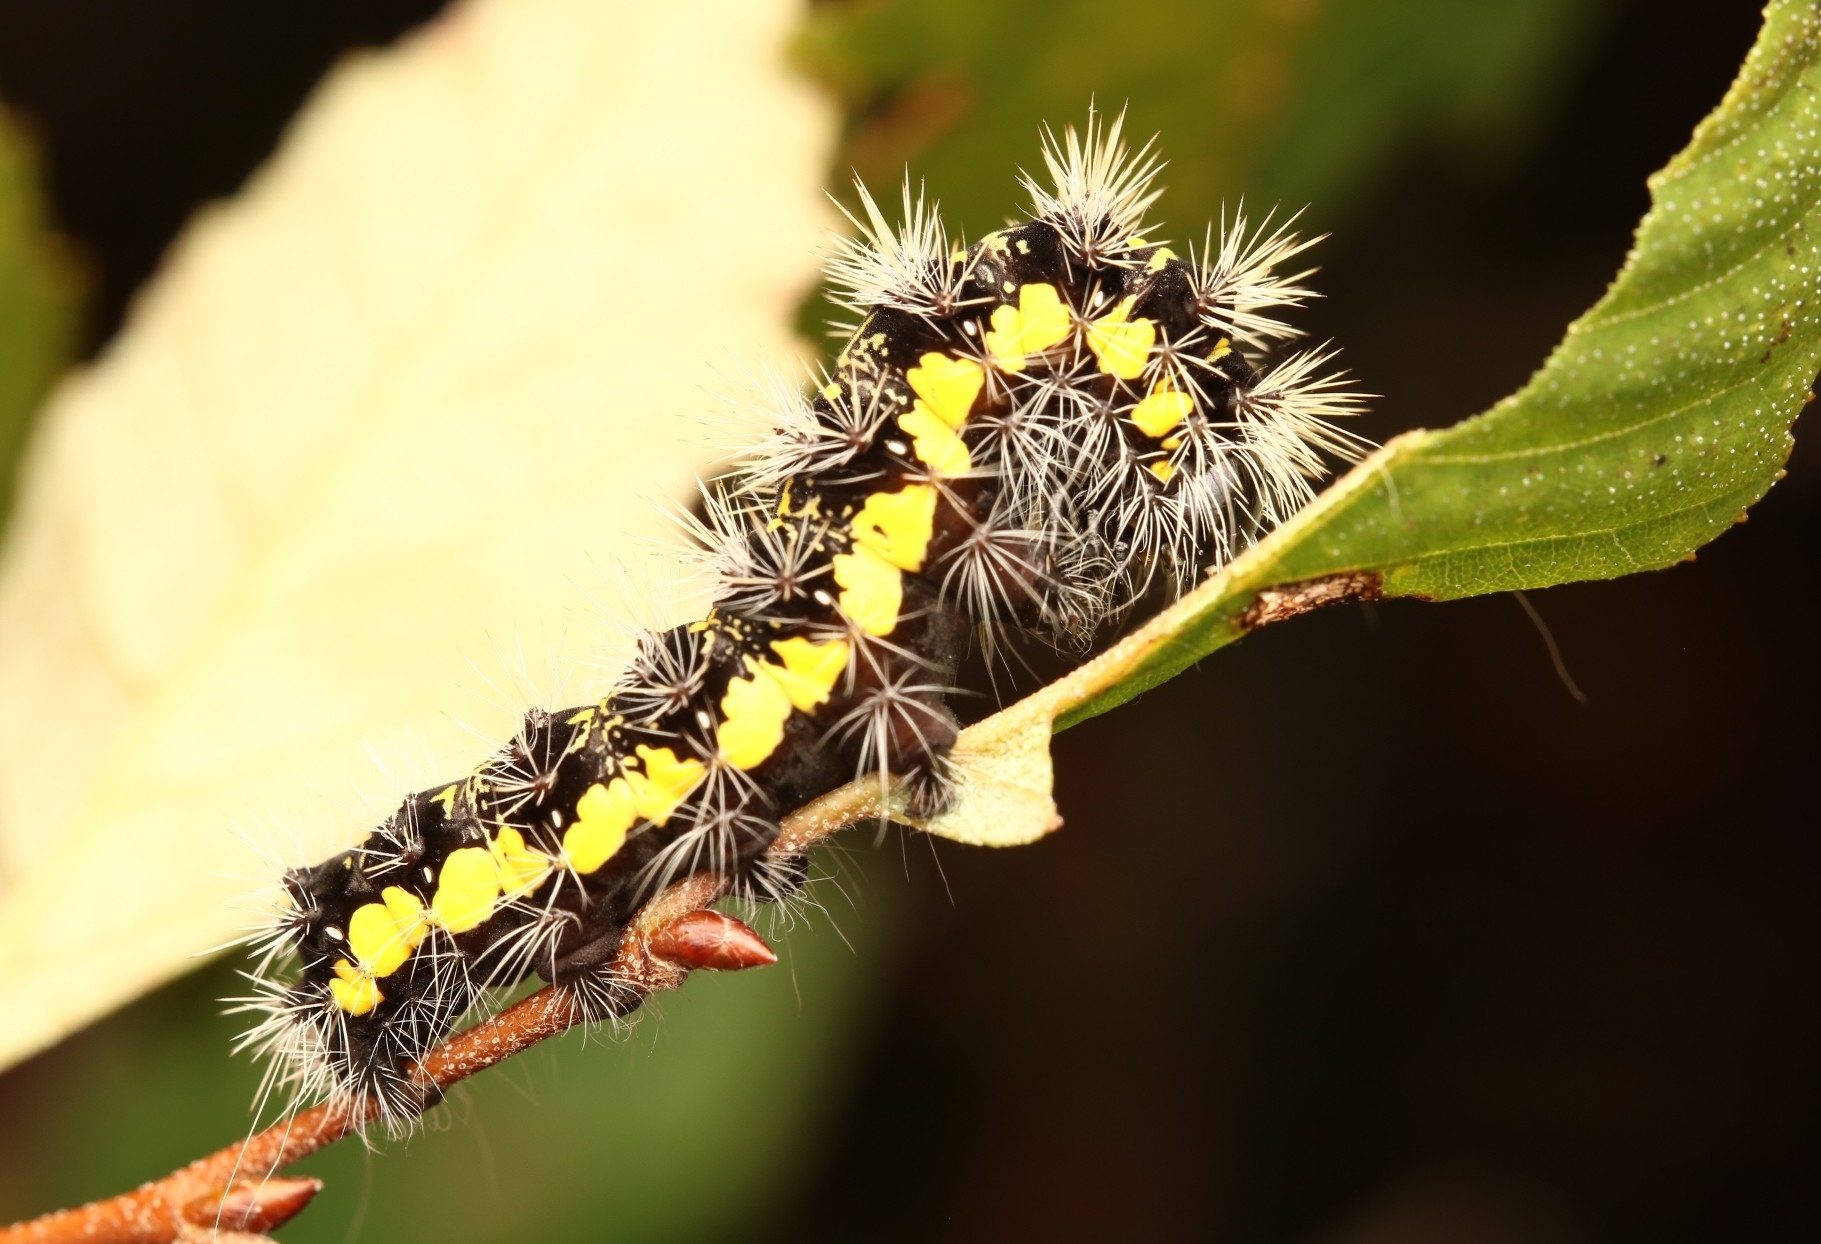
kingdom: Animalia
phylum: Arthropoda
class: Insecta
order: Lepidoptera
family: Noctuidae
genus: Acronicta
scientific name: Acronicta oblinita
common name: Smeared dagger
